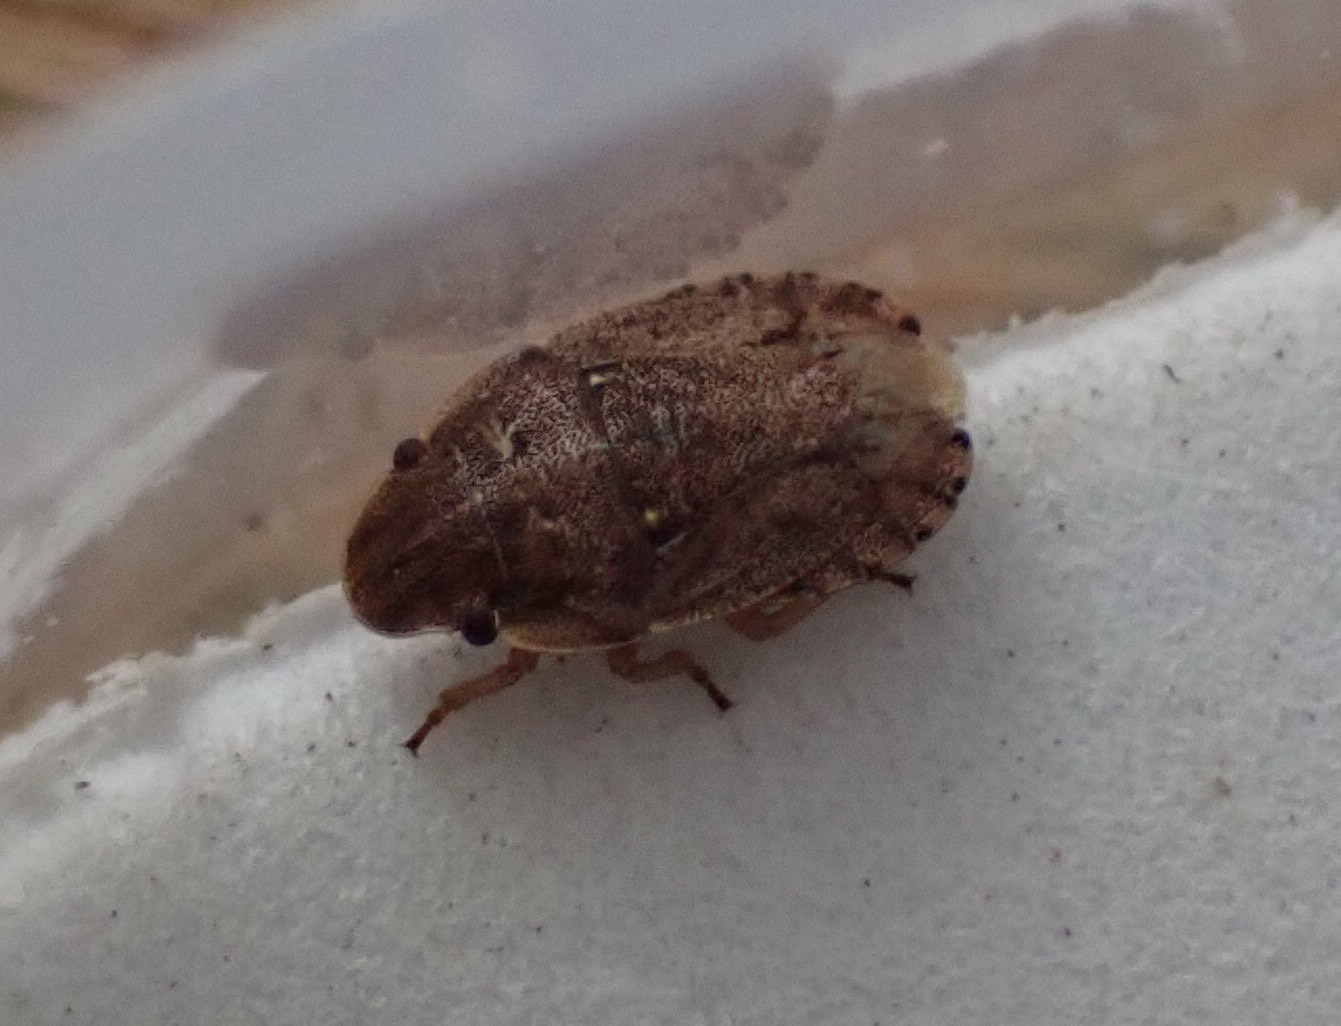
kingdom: Animalia
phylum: Arthropoda
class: Insecta
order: Hemiptera
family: Pentatomidae
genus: Sciocoris
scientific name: Sciocoris cursitans
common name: Sandrunner
